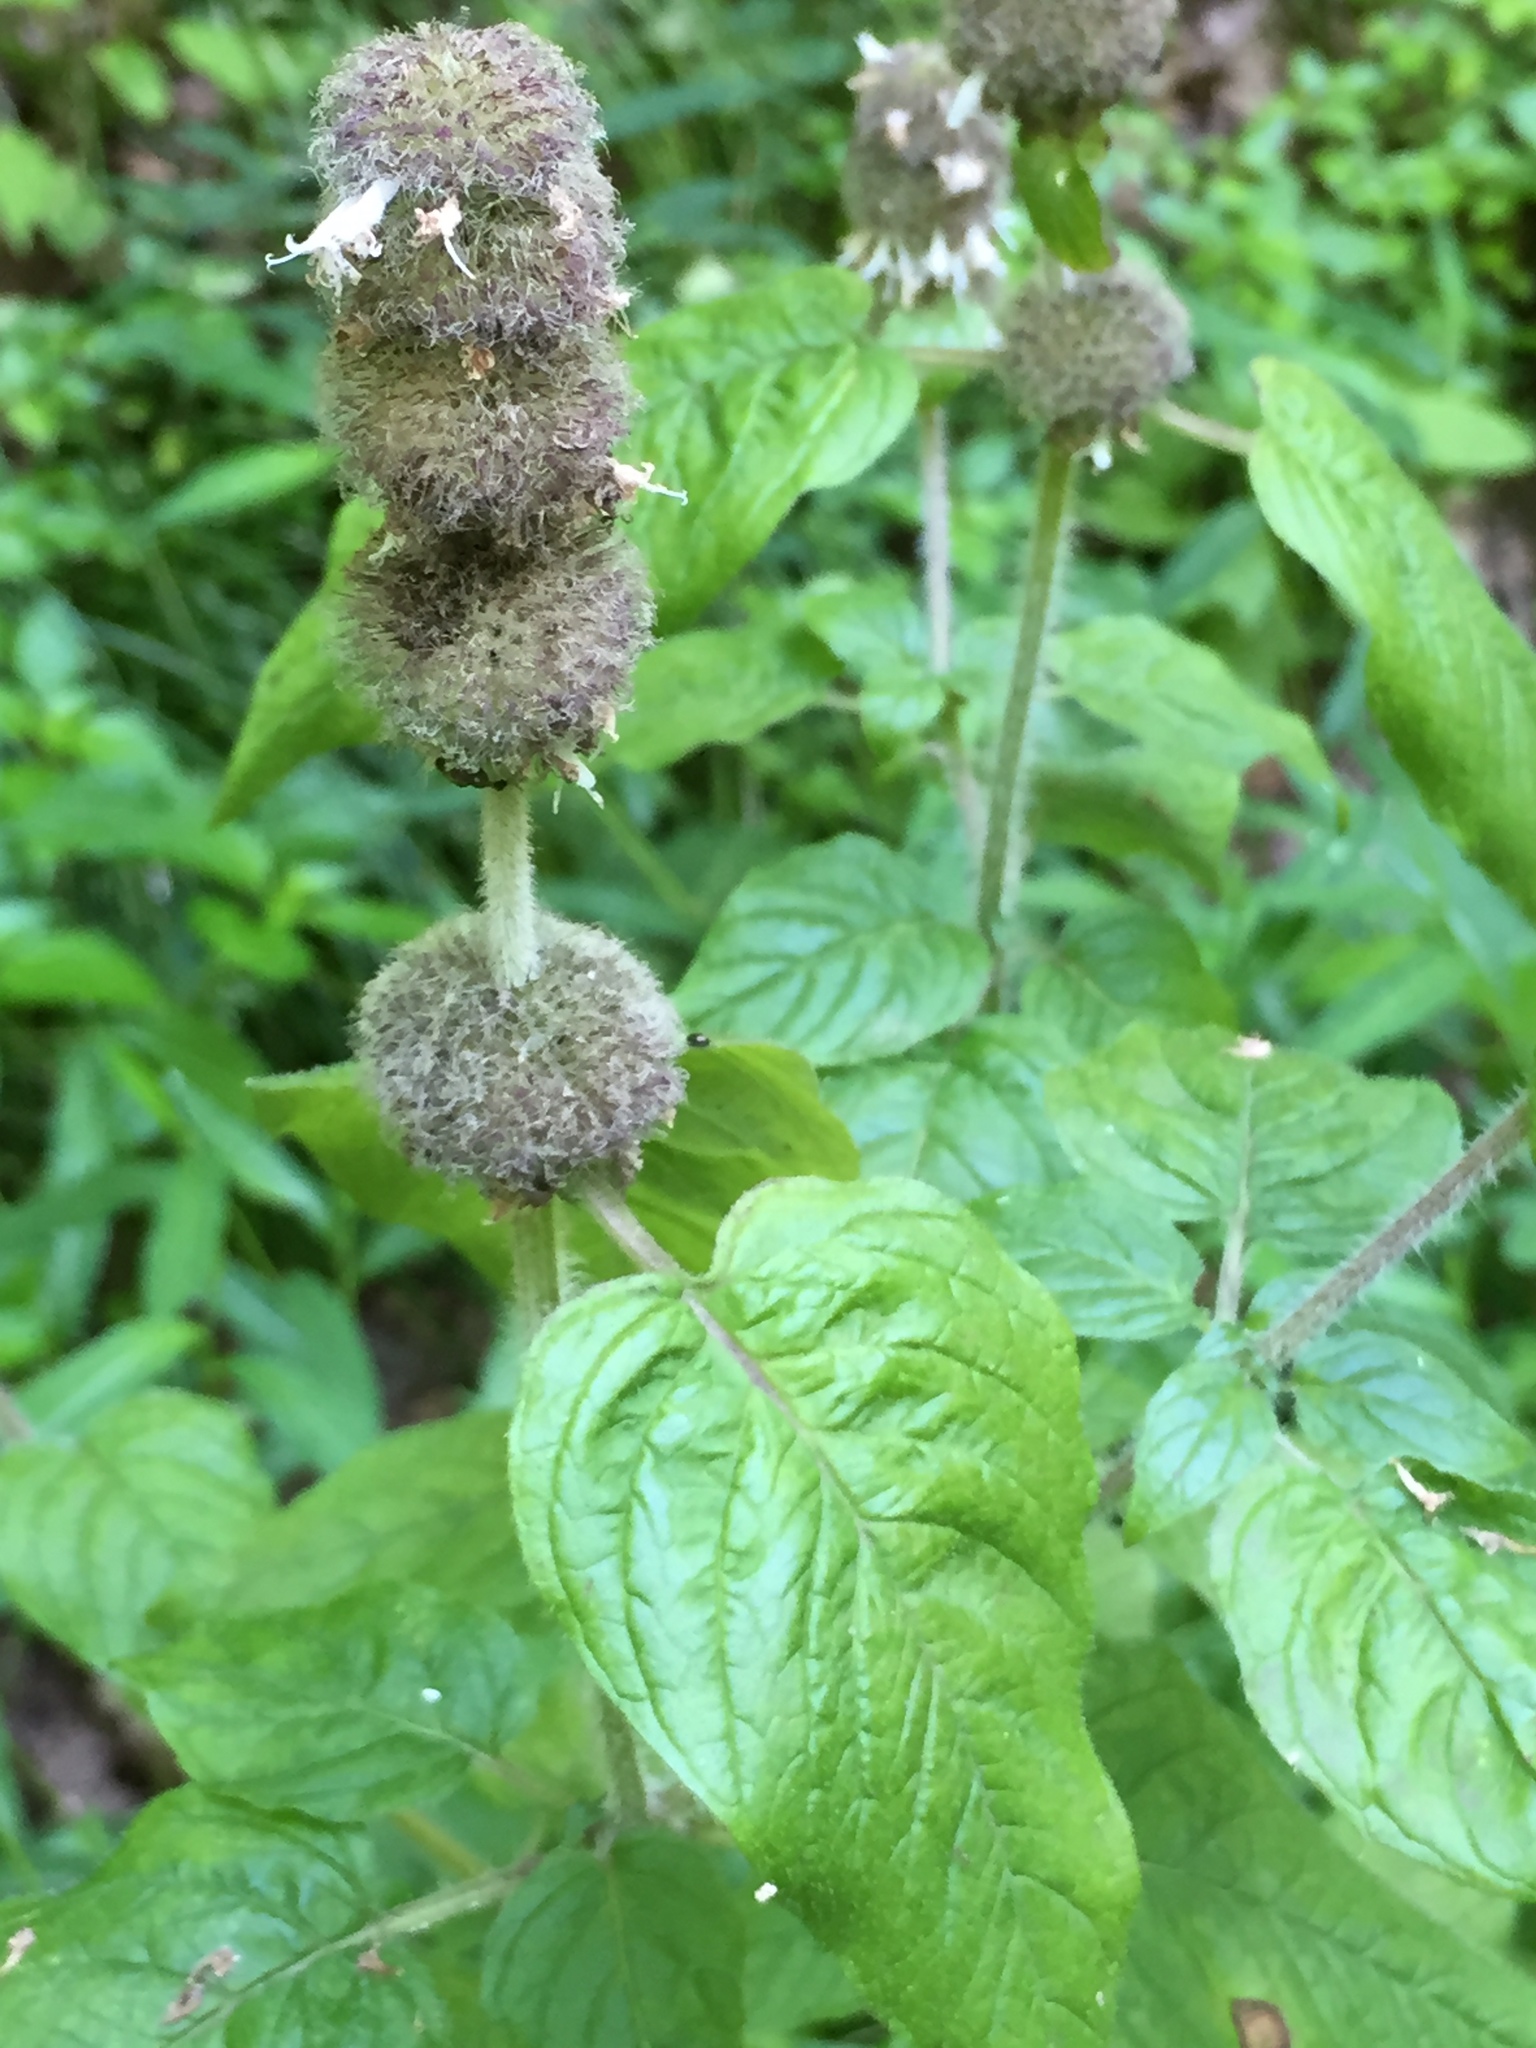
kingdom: Plantae
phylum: Tracheophyta
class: Magnoliopsida
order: Lamiales
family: Lamiaceae
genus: Blephilia
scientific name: Blephilia hirsuta
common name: Hairy blephilia
